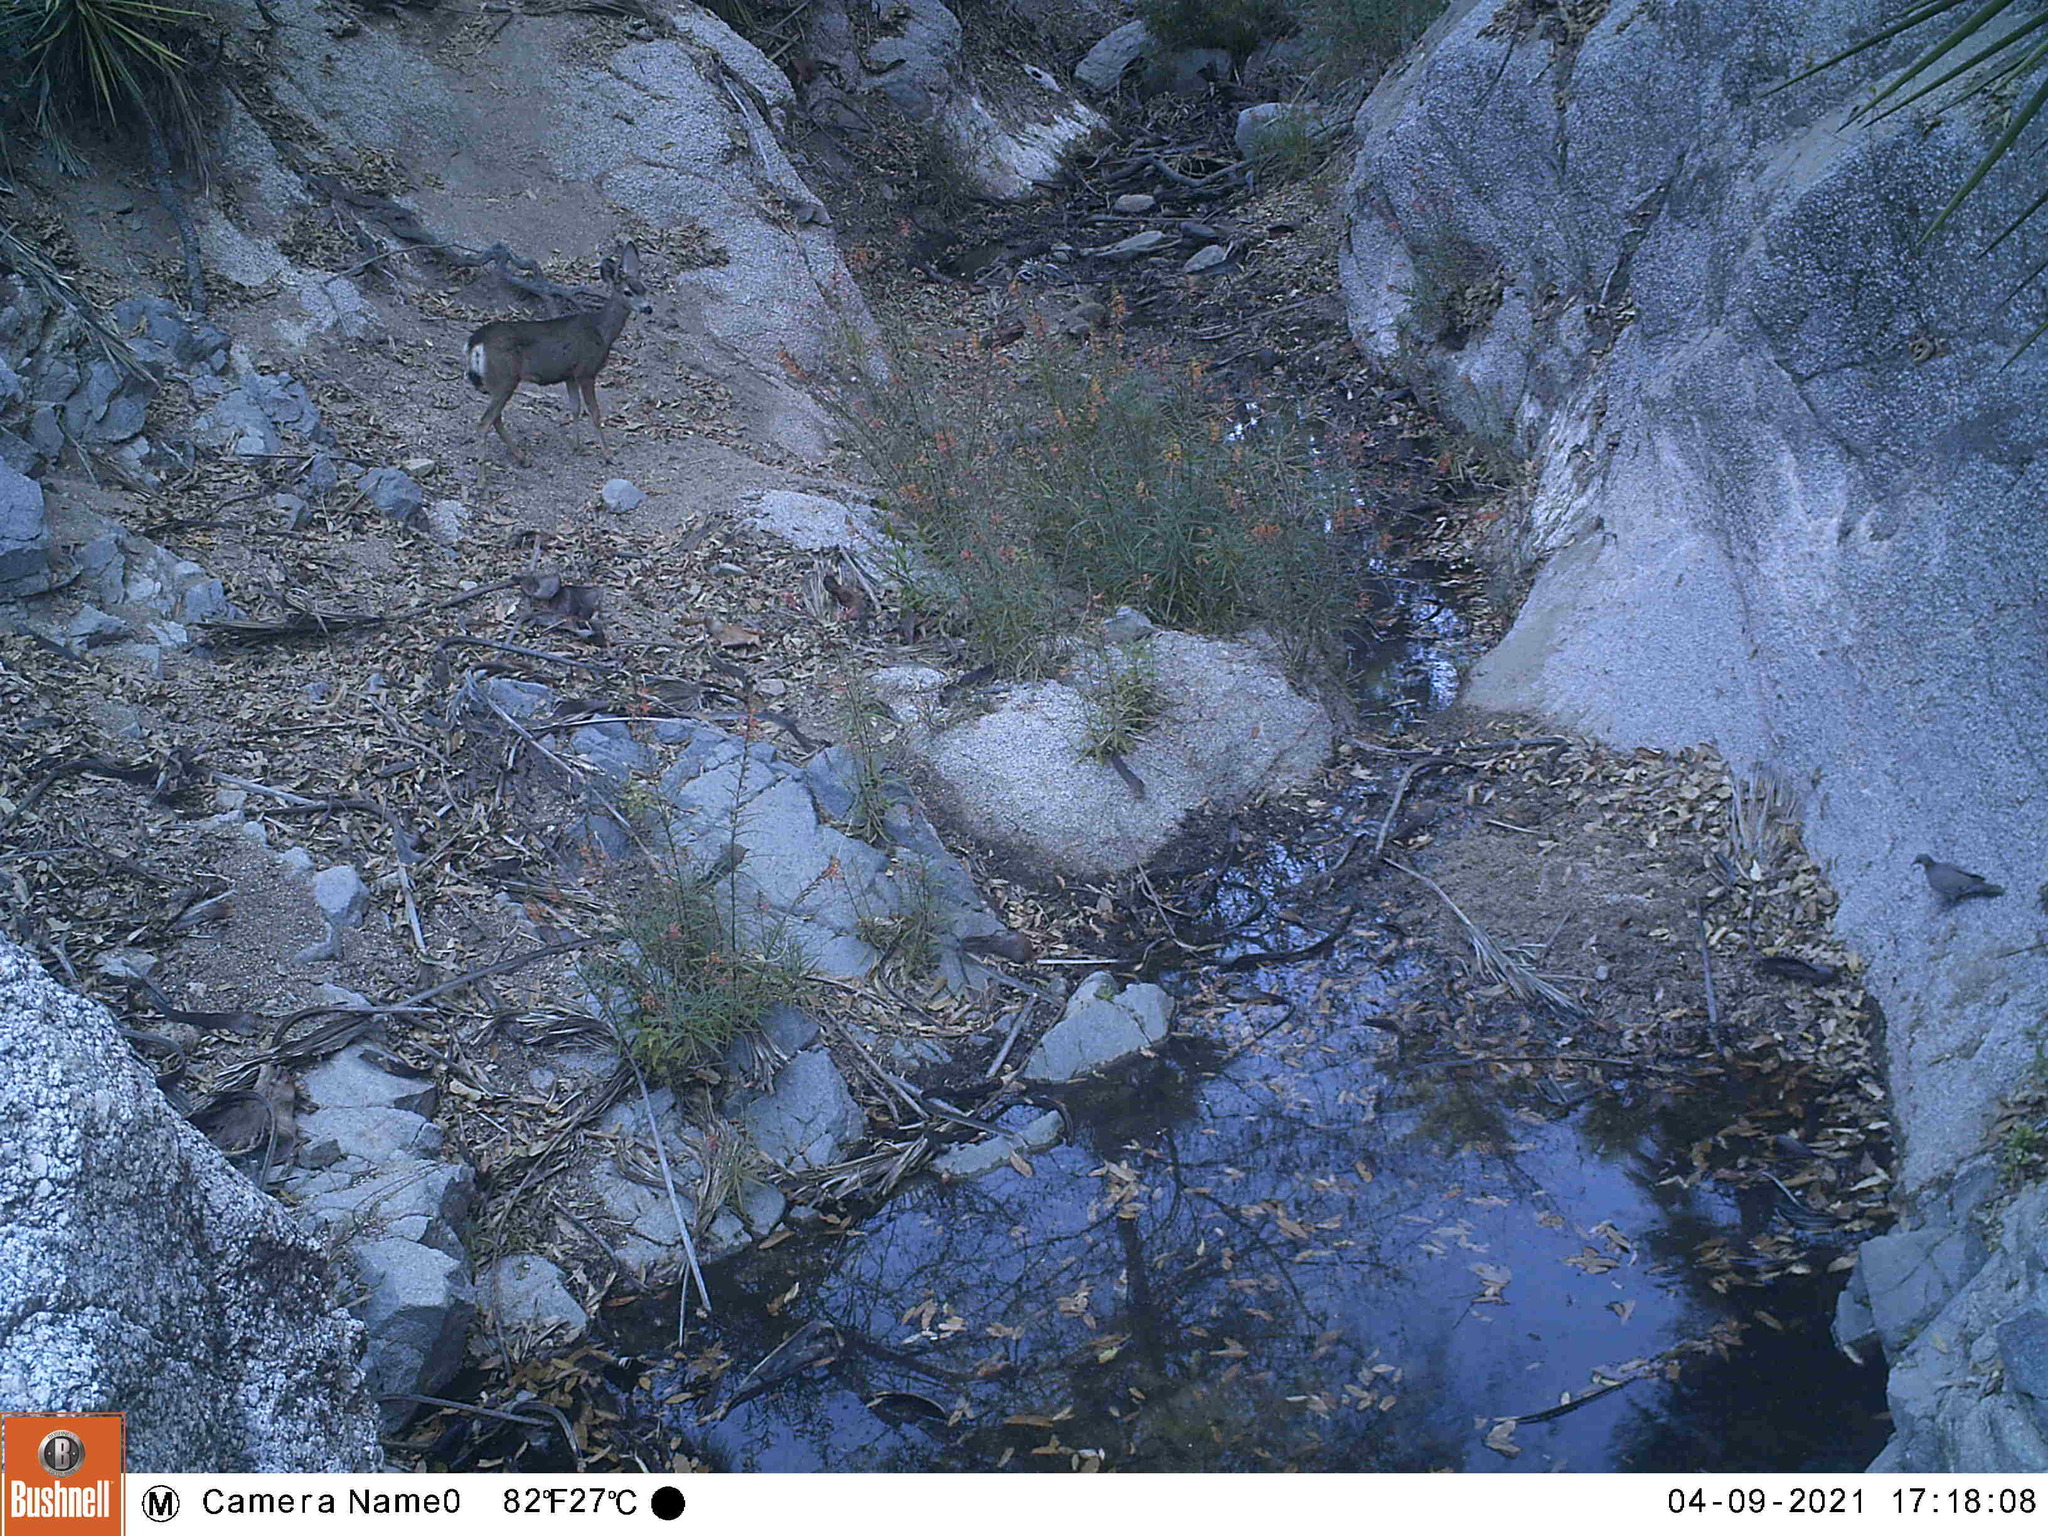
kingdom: Animalia
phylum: Chordata
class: Mammalia
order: Artiodactyla
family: Cervidae
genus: Odocoileus
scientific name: Odocoileus hemionus
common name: Mule deer
